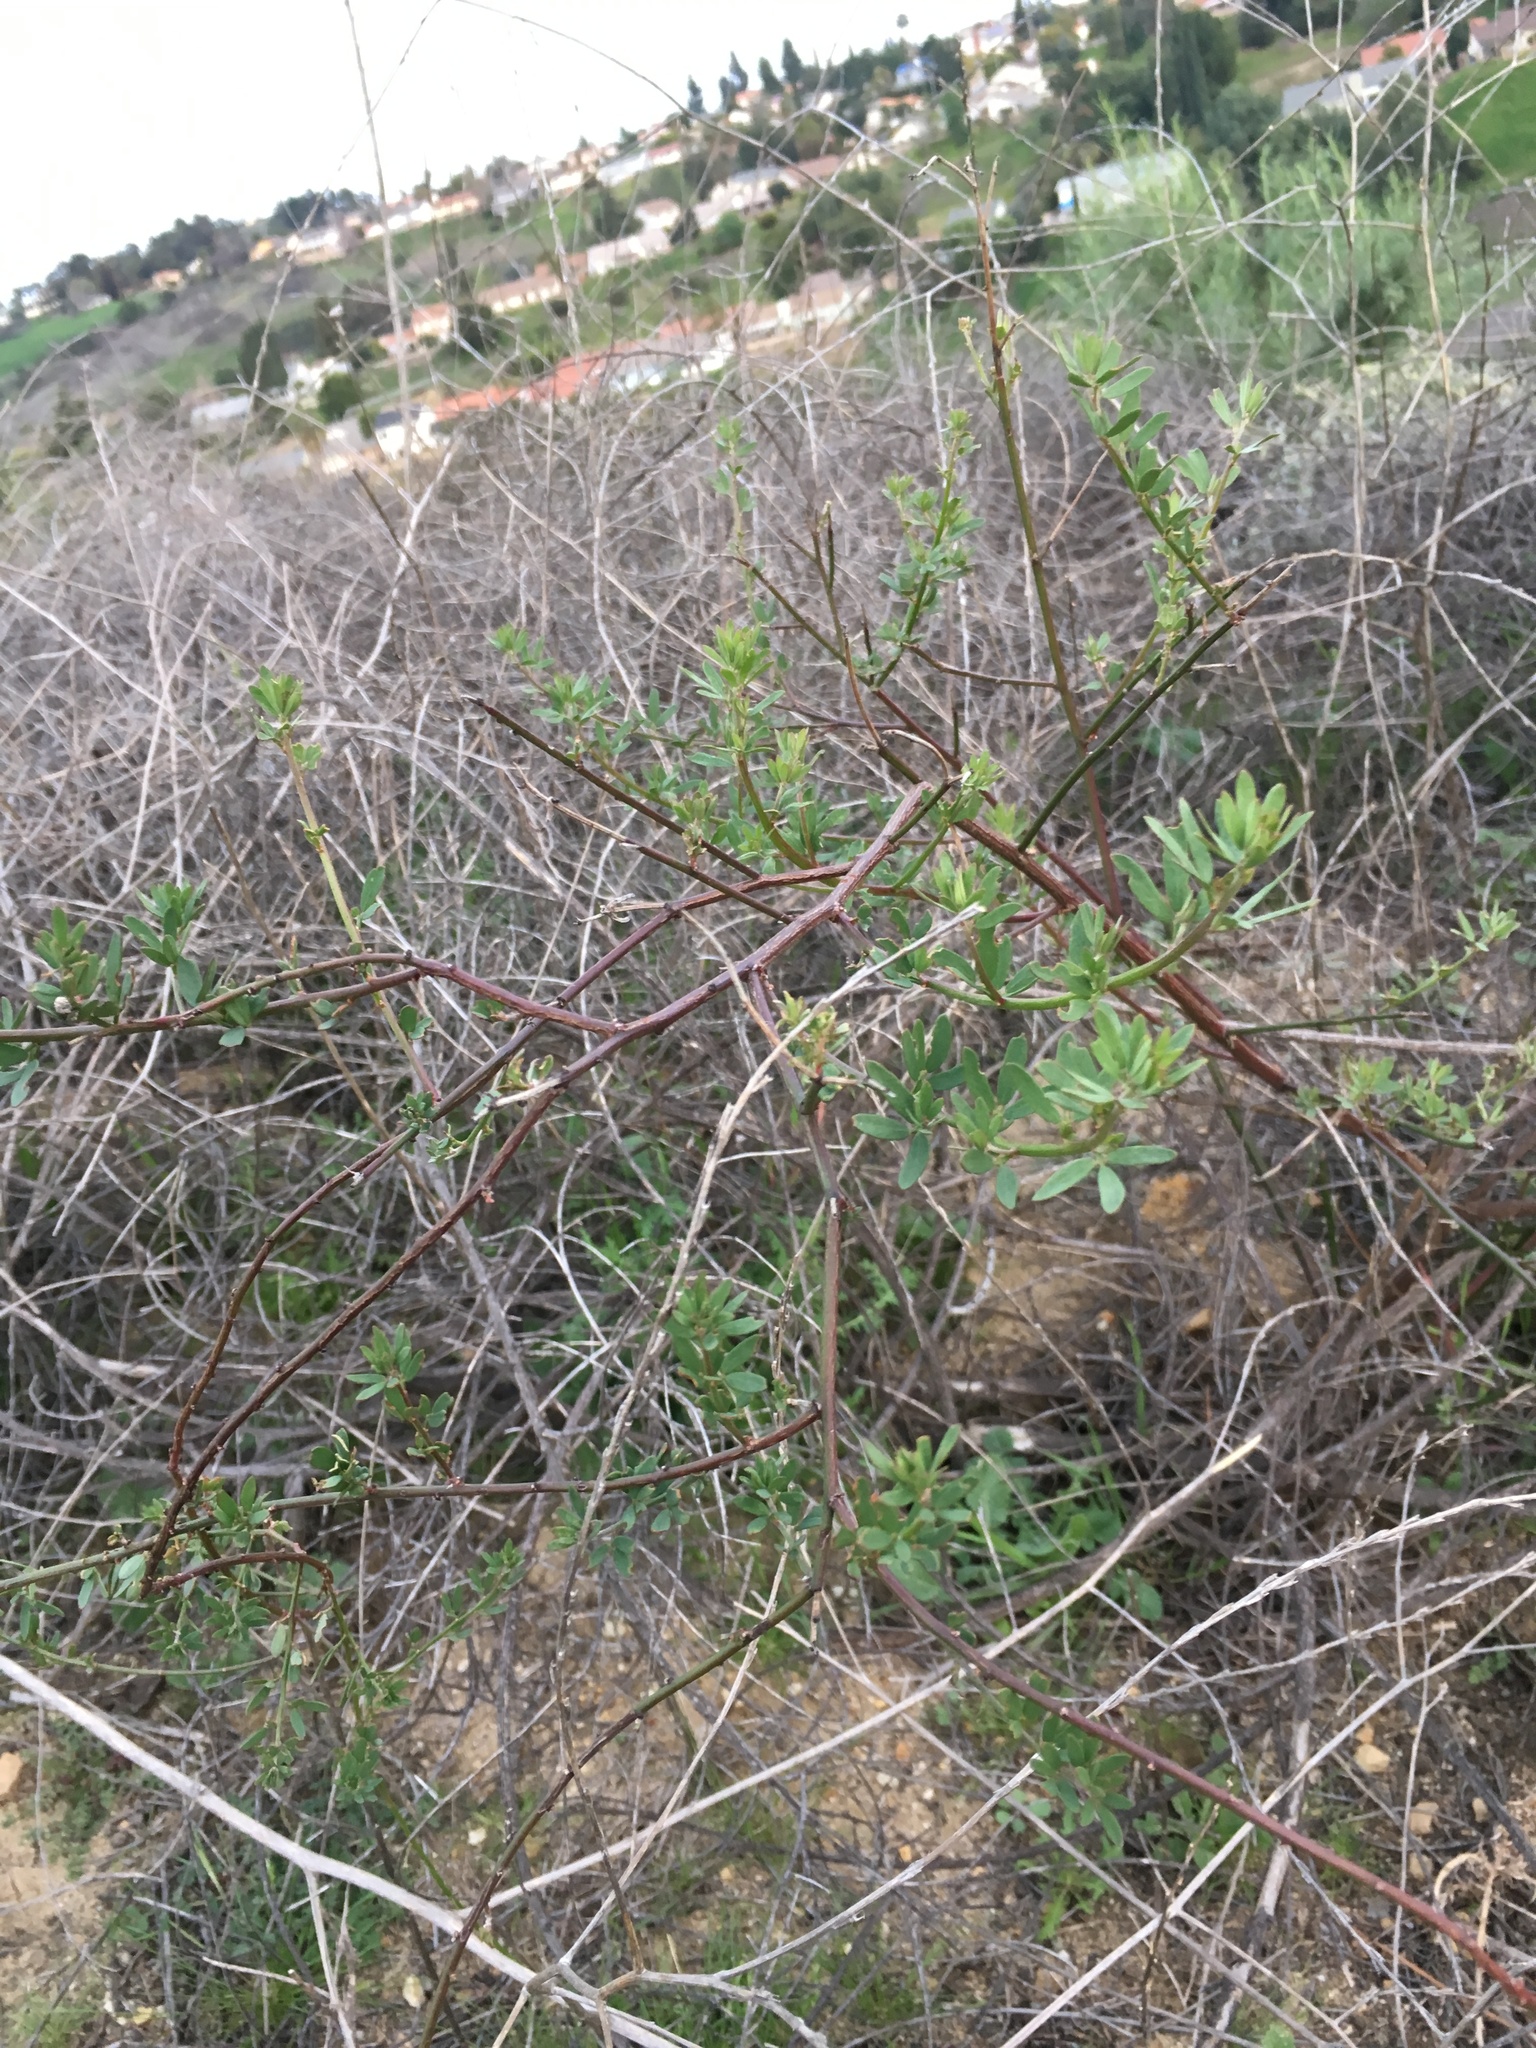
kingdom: Plantae
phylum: Tracheophyta
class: Magnoliopsida
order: Fabales
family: Fabaceae
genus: Acmispon
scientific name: Acmispon glaber
